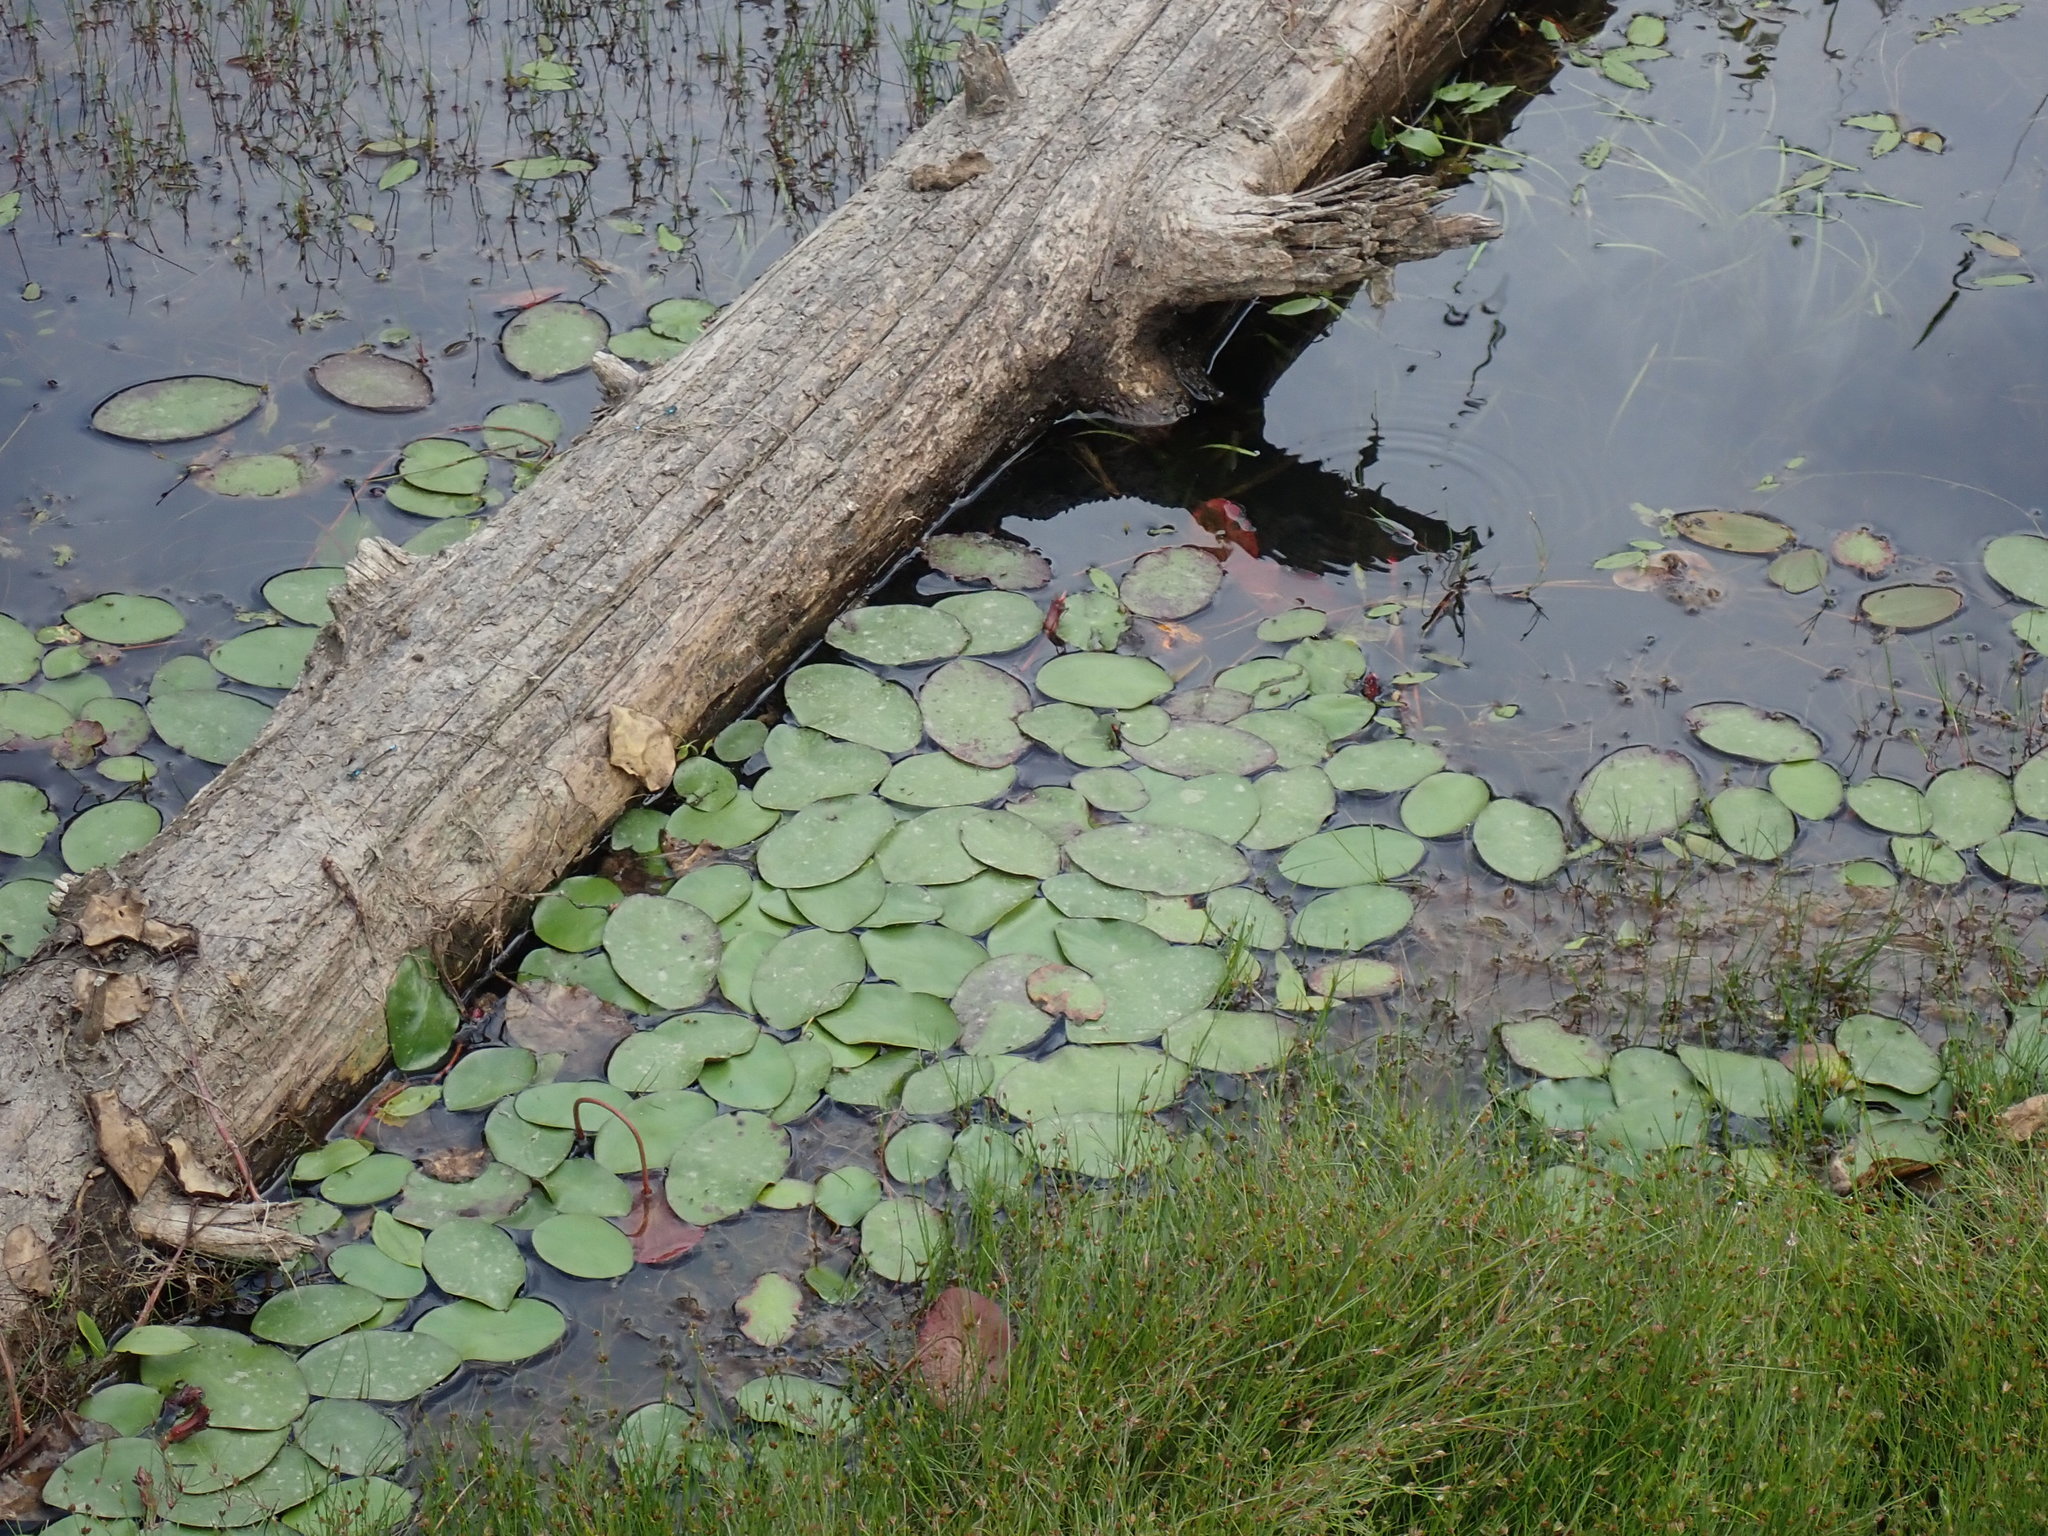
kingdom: Plantae
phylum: Tracheophyta
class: Magnoliopsida
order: Nymphaeales
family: Cabombaceae
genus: Brasenia
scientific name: Brasenia schreberi
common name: Water-shield
